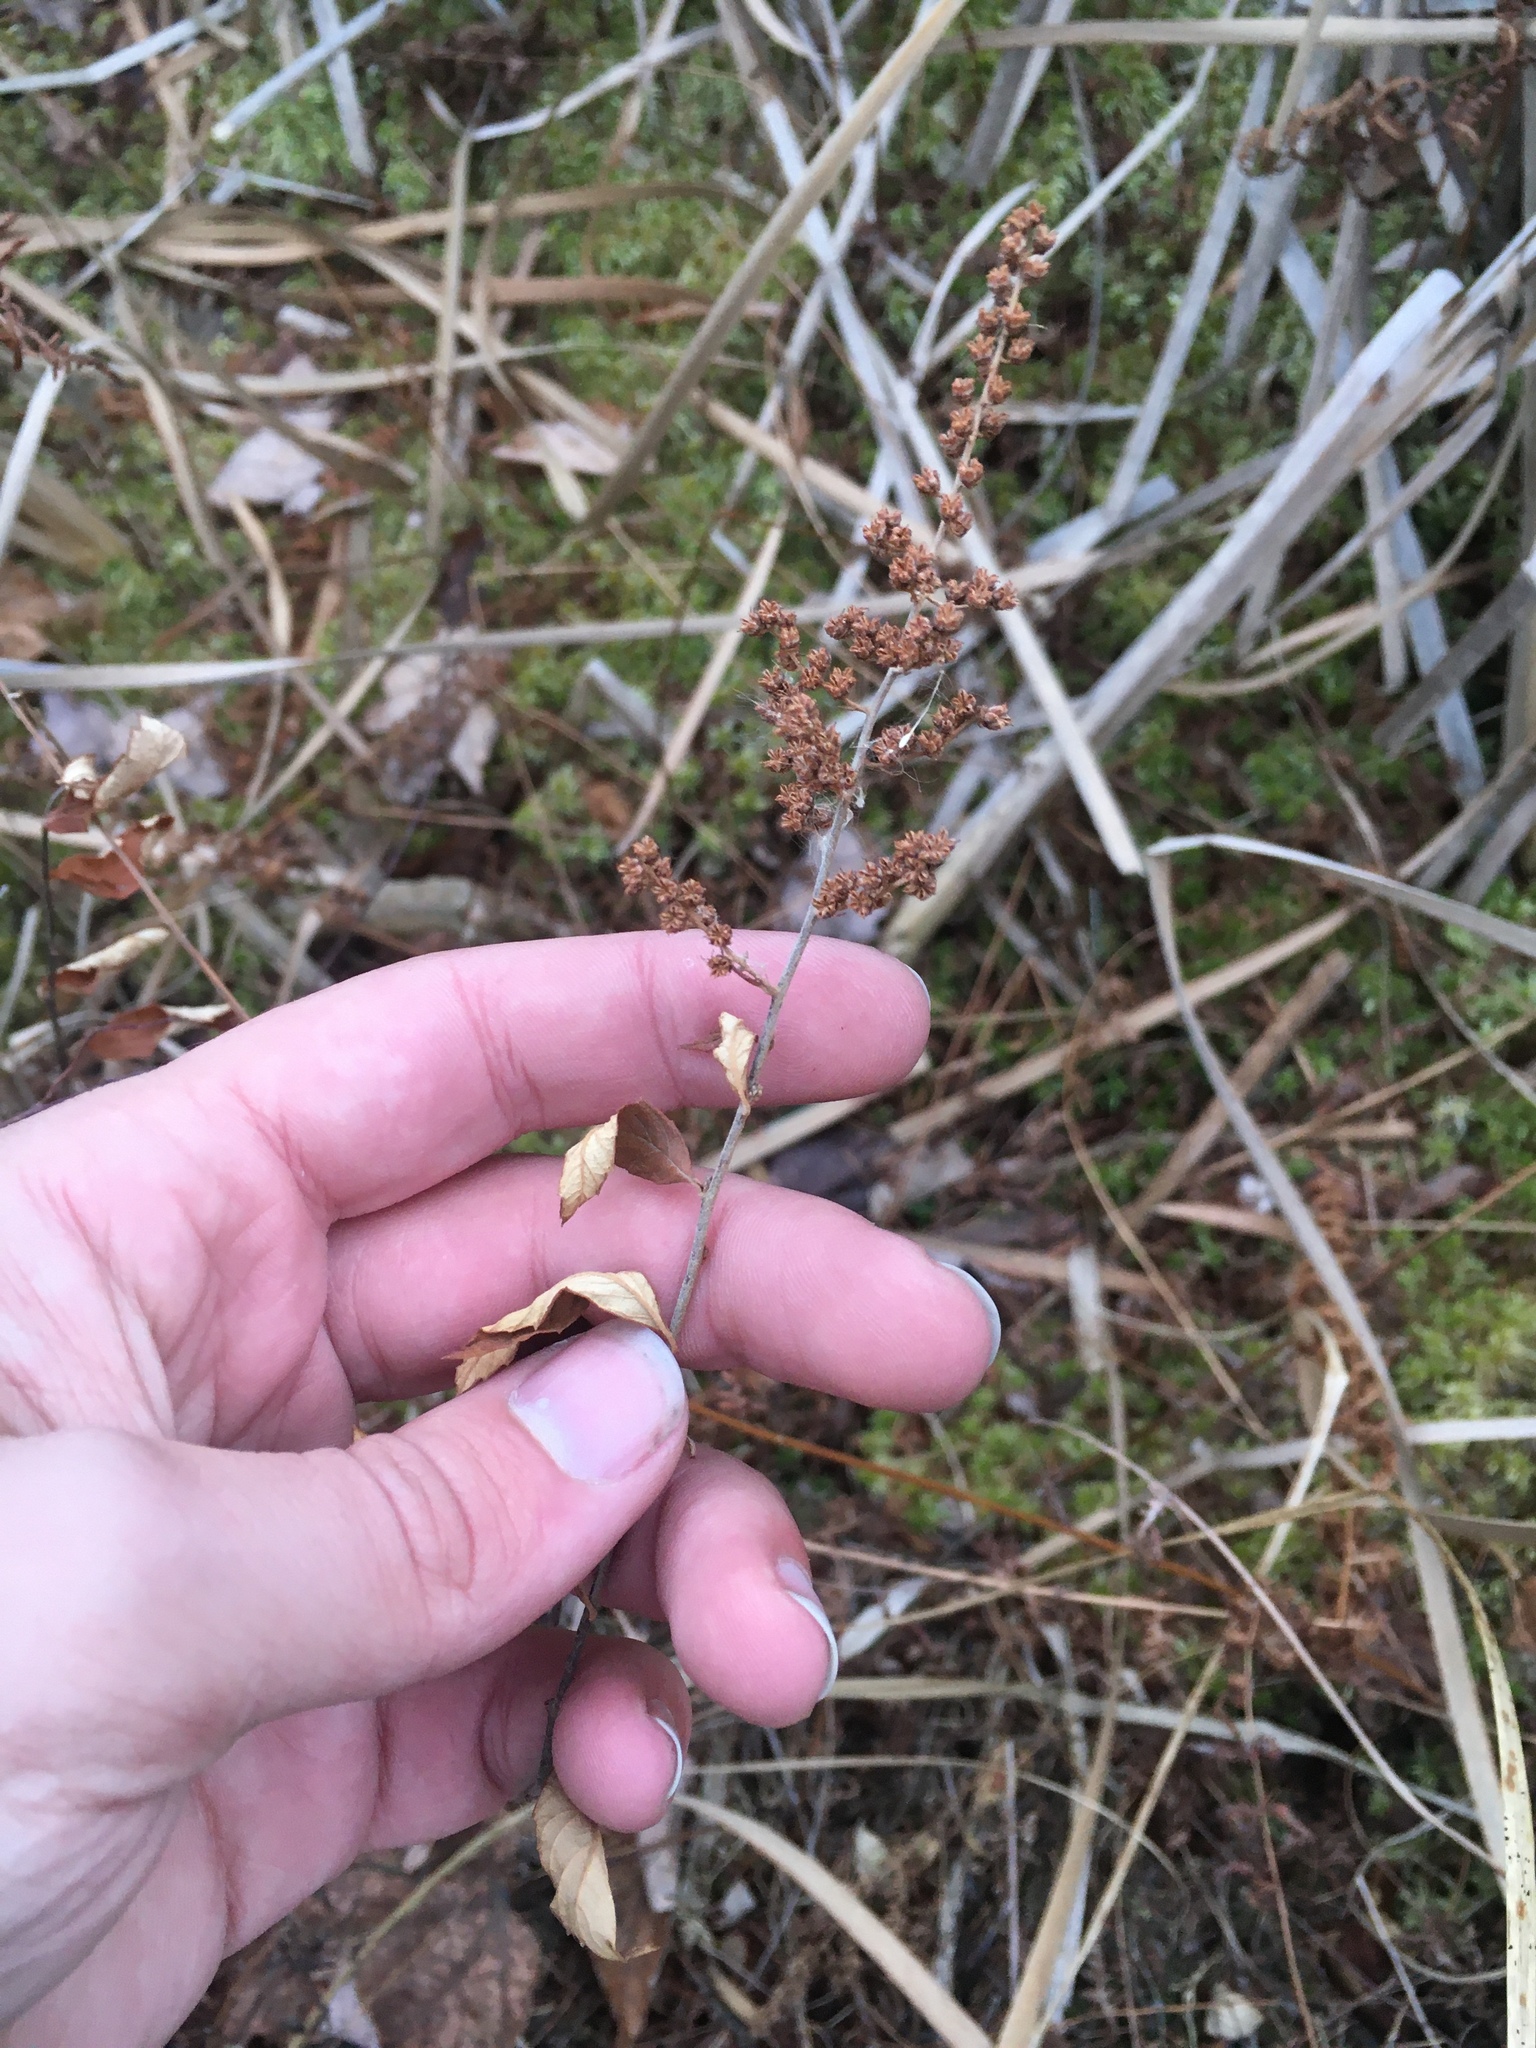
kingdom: Plantae
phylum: Tracheophyta
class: Magnoliopsida
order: Rosales
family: Rosaceae
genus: Spiraea
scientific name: Spiraea tomentosa
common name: Hardhack
